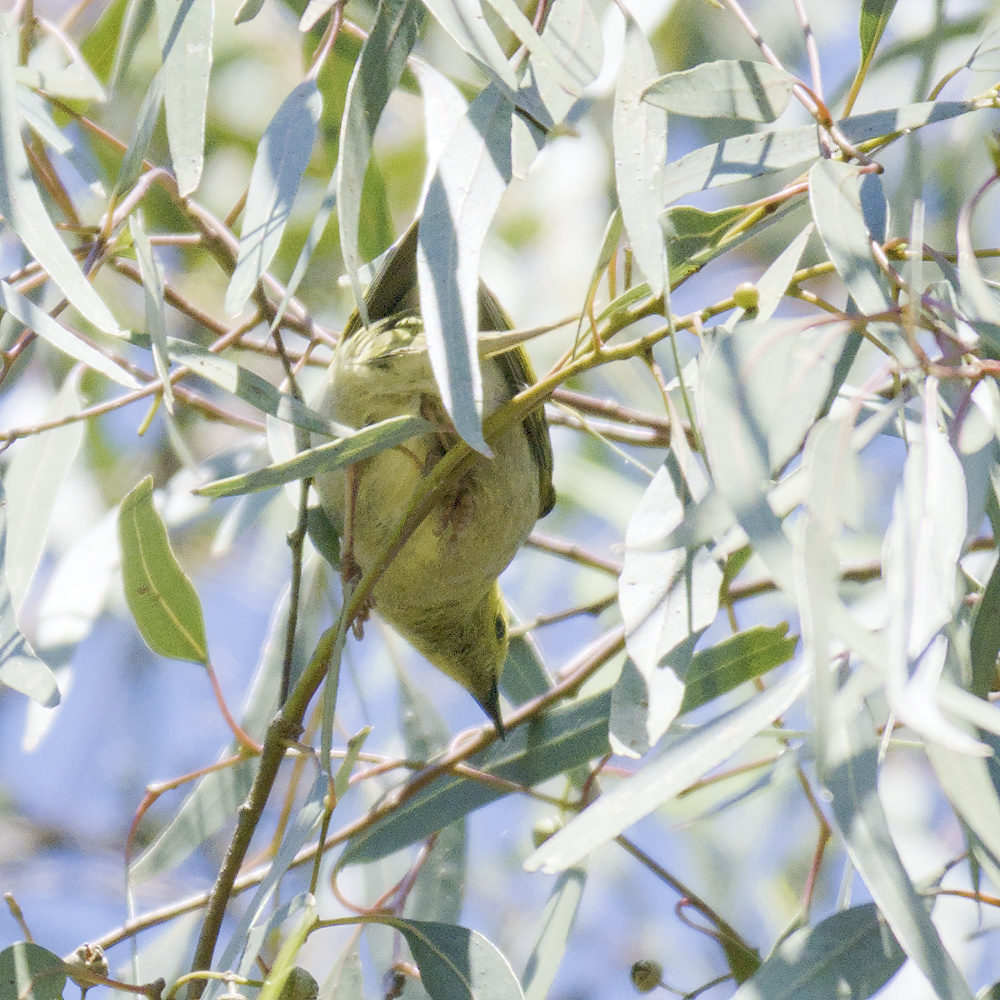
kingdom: Animalia
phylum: Chordata
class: Aves
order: Passeriformes
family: Meliphagidae
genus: Ptilotula
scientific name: Ptilotula penicillata
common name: White-plumed honeyeater
